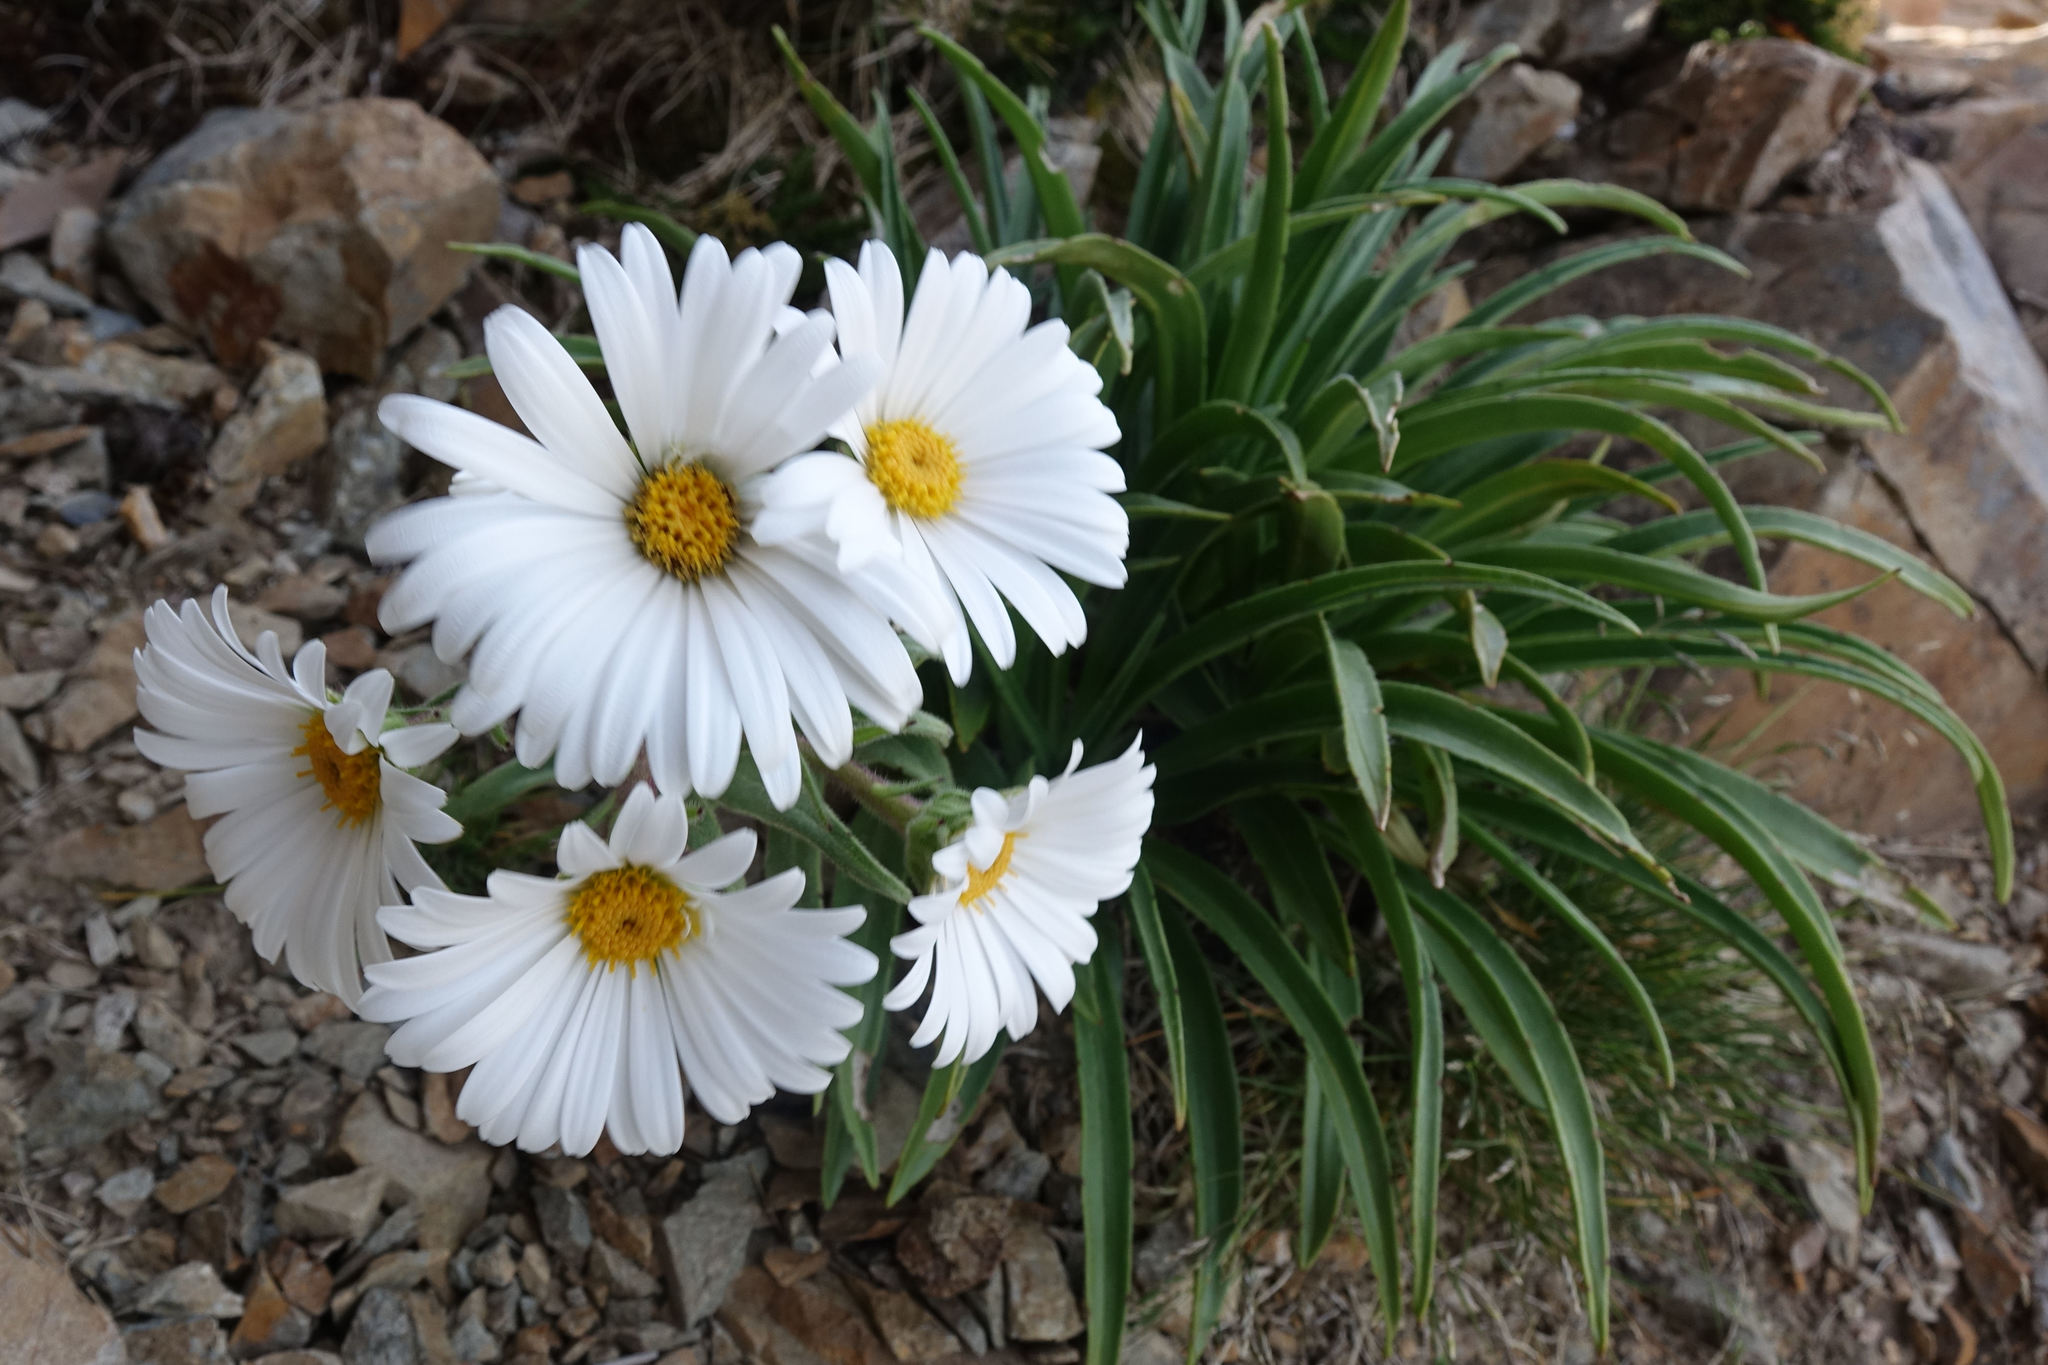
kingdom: Plantae
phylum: Tracheophyta
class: Magnoliopsida
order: Asterales
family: Asteraceae
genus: Dolichoglottis
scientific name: Dolichoglottis scorzoneroides
